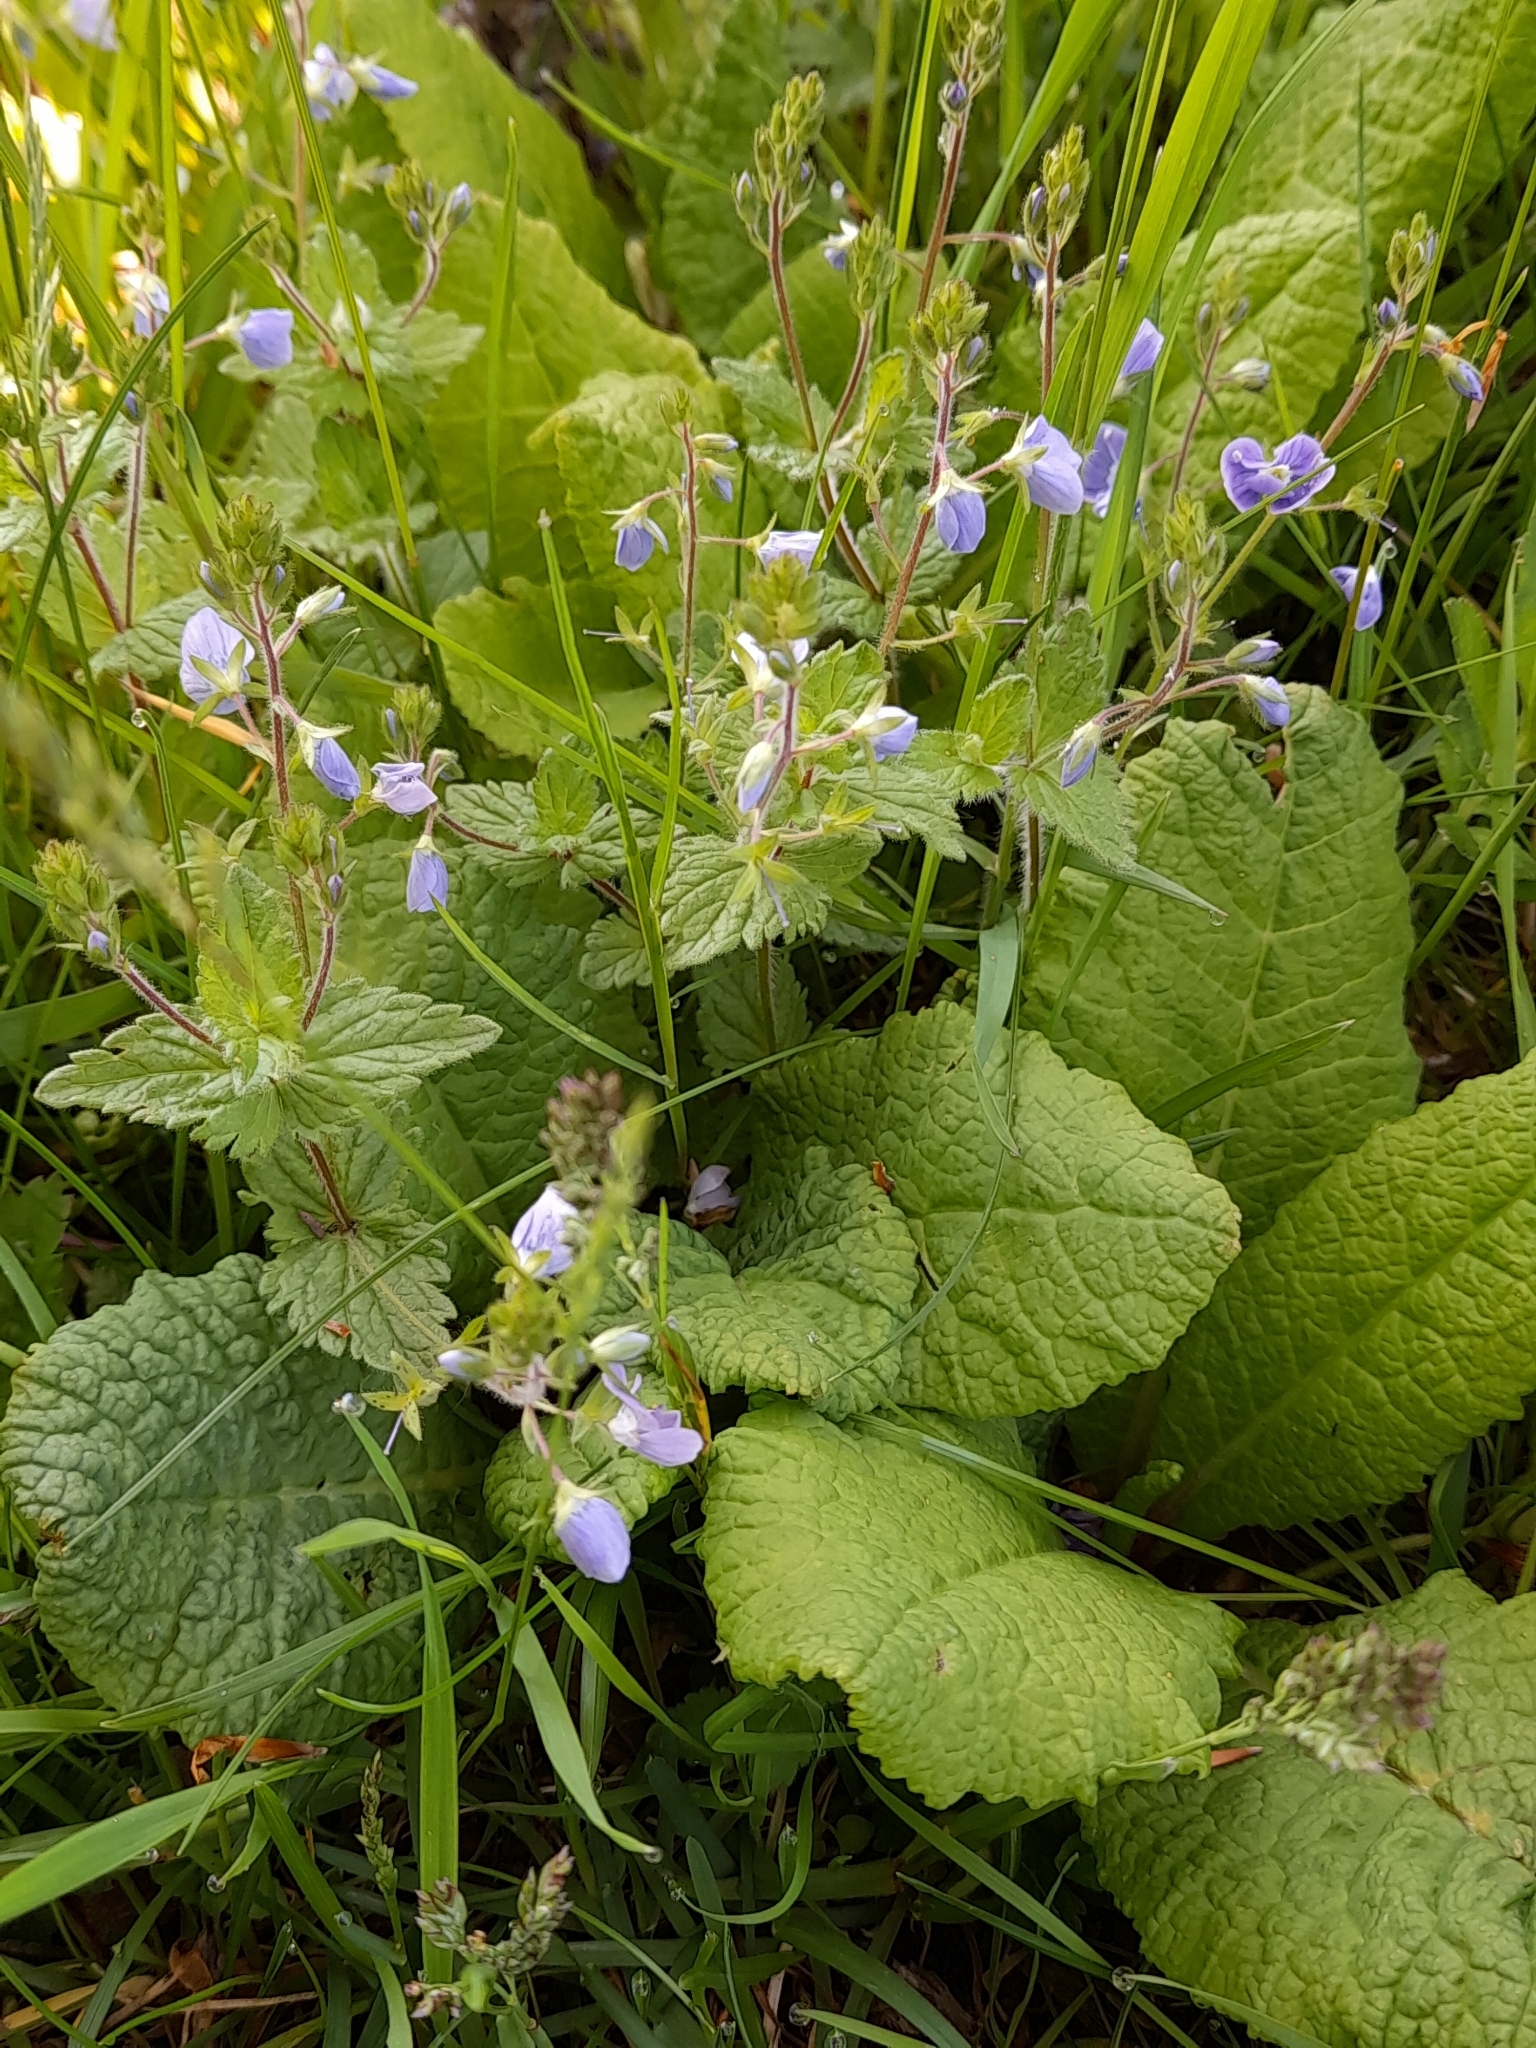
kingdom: Plantae
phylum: Tracheophyta
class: Magnoliopsida
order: Lamiales
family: Plantaginaceae
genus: Veronica
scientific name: Veronica chamaedrys
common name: Germander speedwell
